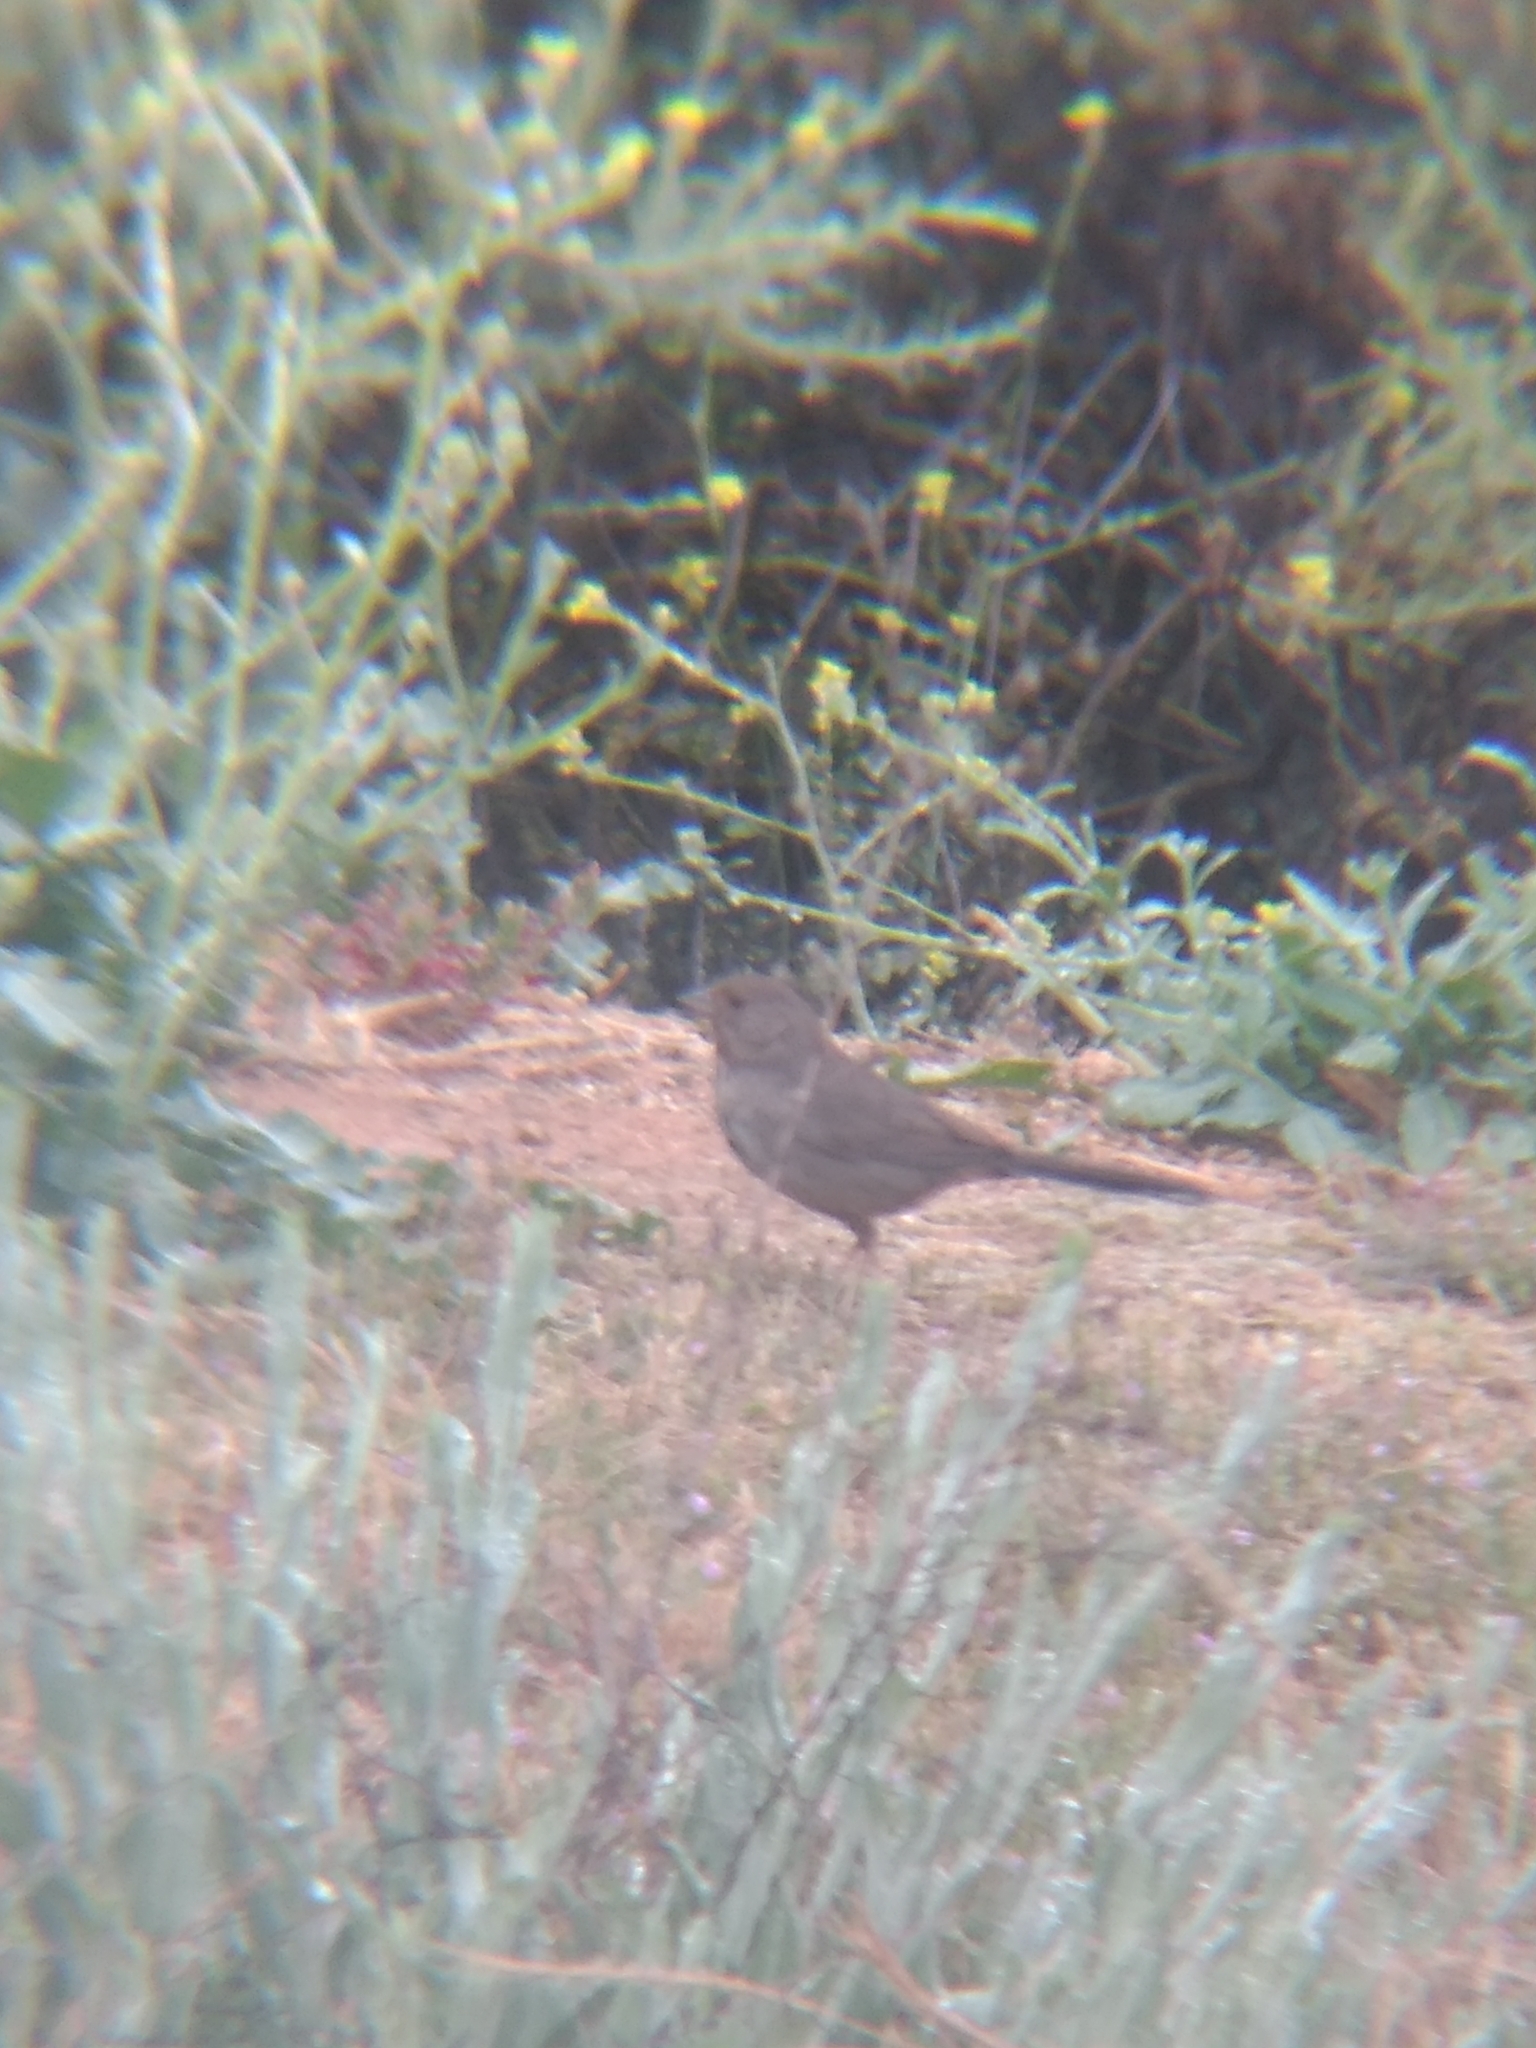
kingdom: Animalia
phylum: Chordata
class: Aves
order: Passeriformes
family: Passerellidae
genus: Melozone
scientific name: Melozone crissalis
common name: California towhee
